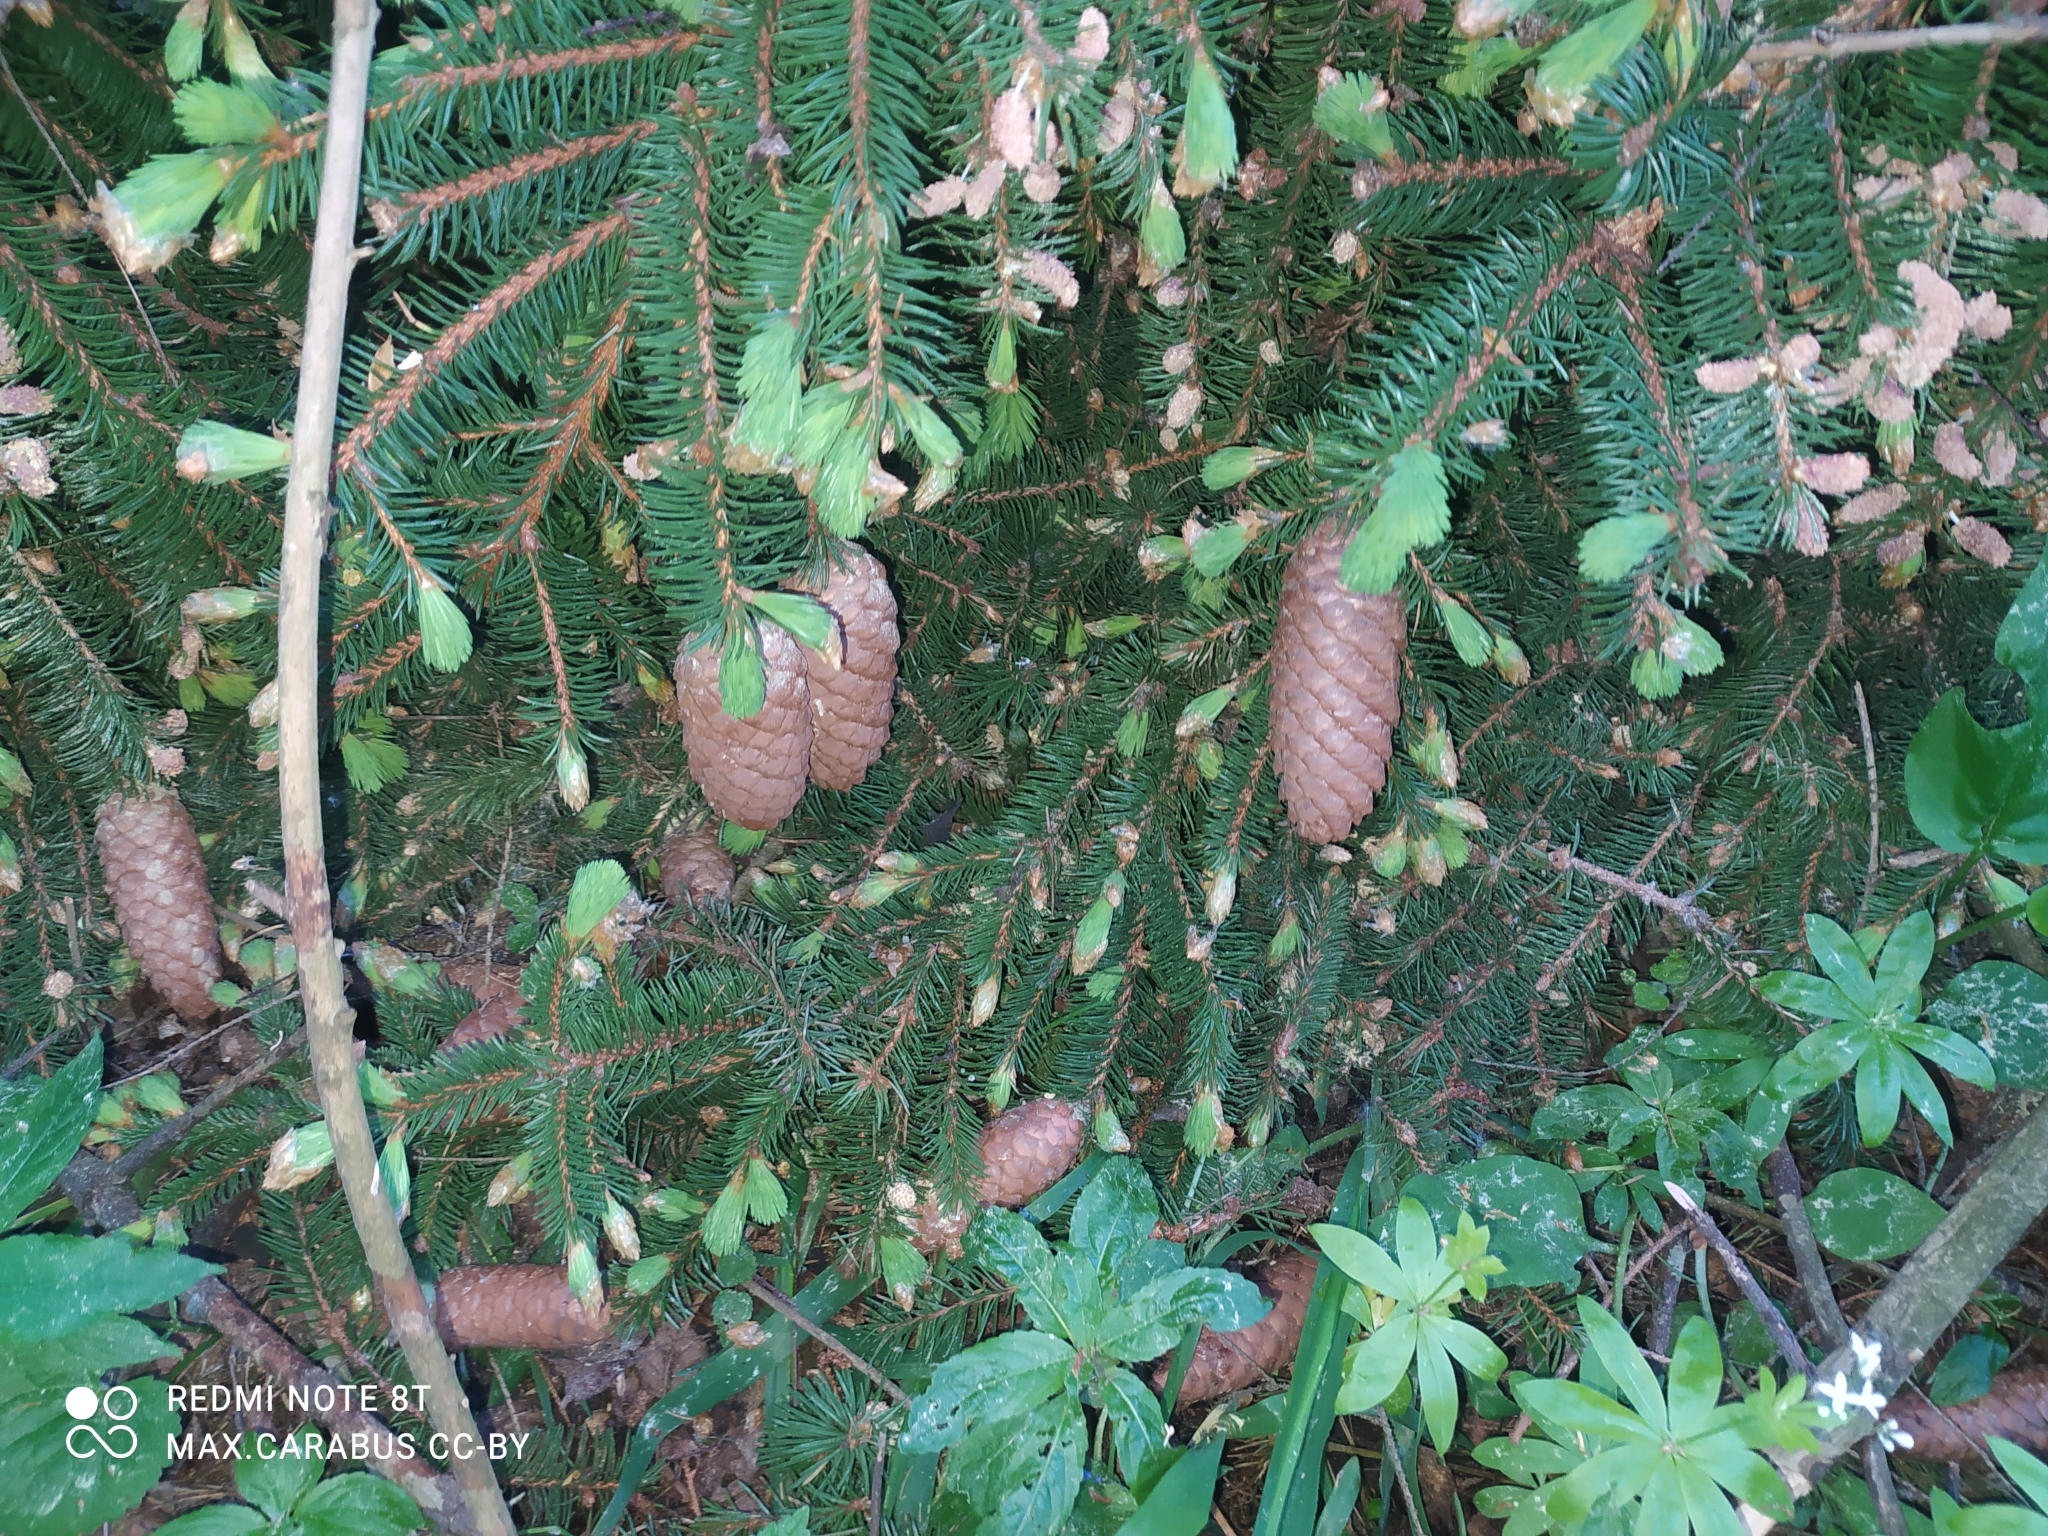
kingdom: Plantae
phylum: Tracheophyta
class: Pinopsida
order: Pinales
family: Pinaceae
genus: Picea
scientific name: Picea abies
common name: Norway spruce
